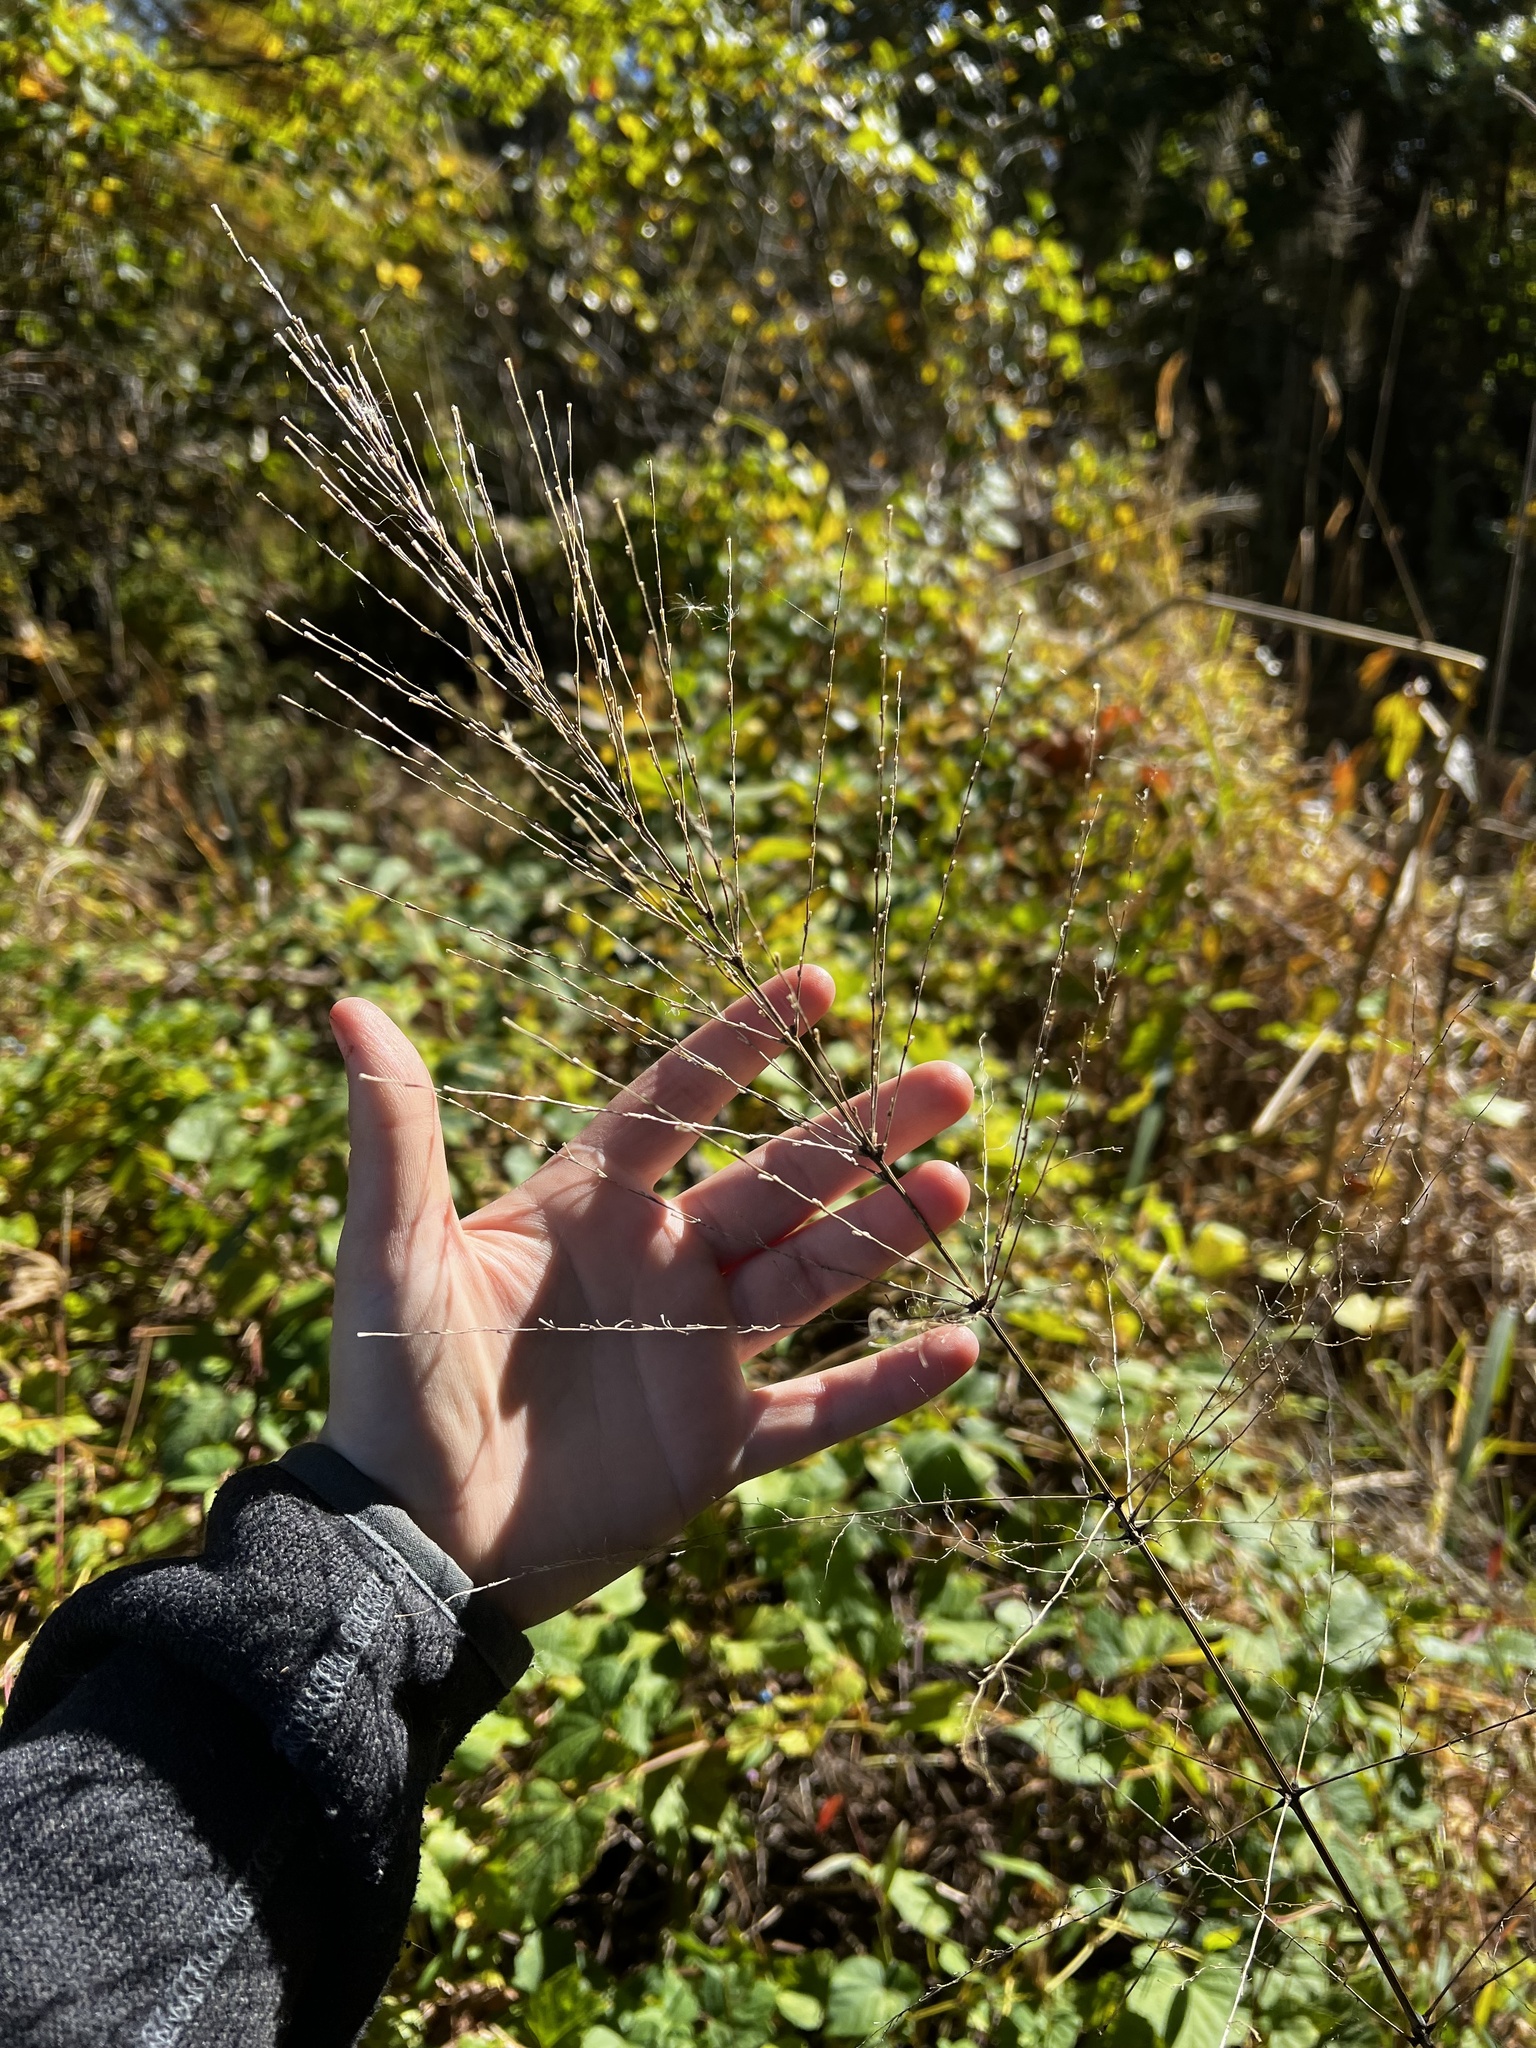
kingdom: Plantae
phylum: Tracheophyta
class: Liliopsida
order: Poales
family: Poaceae
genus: Zizania
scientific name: Zizania aquatica
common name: Annual wildrice
